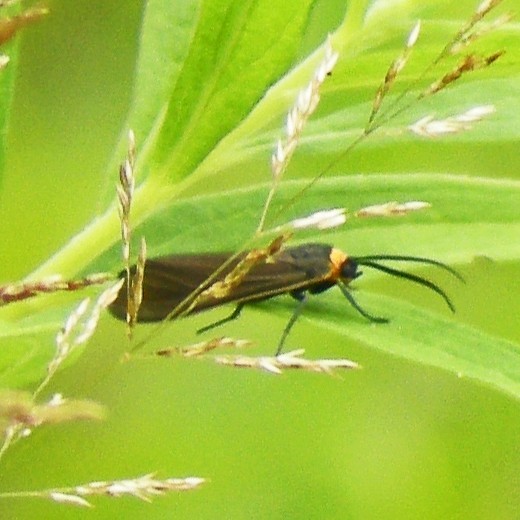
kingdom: Animalia
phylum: Arthropoda
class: Insecta
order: Lepidoptera
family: Erebidae
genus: Cisseps
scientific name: Cisseps fulvicollis
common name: Yellow-collared scape moth
